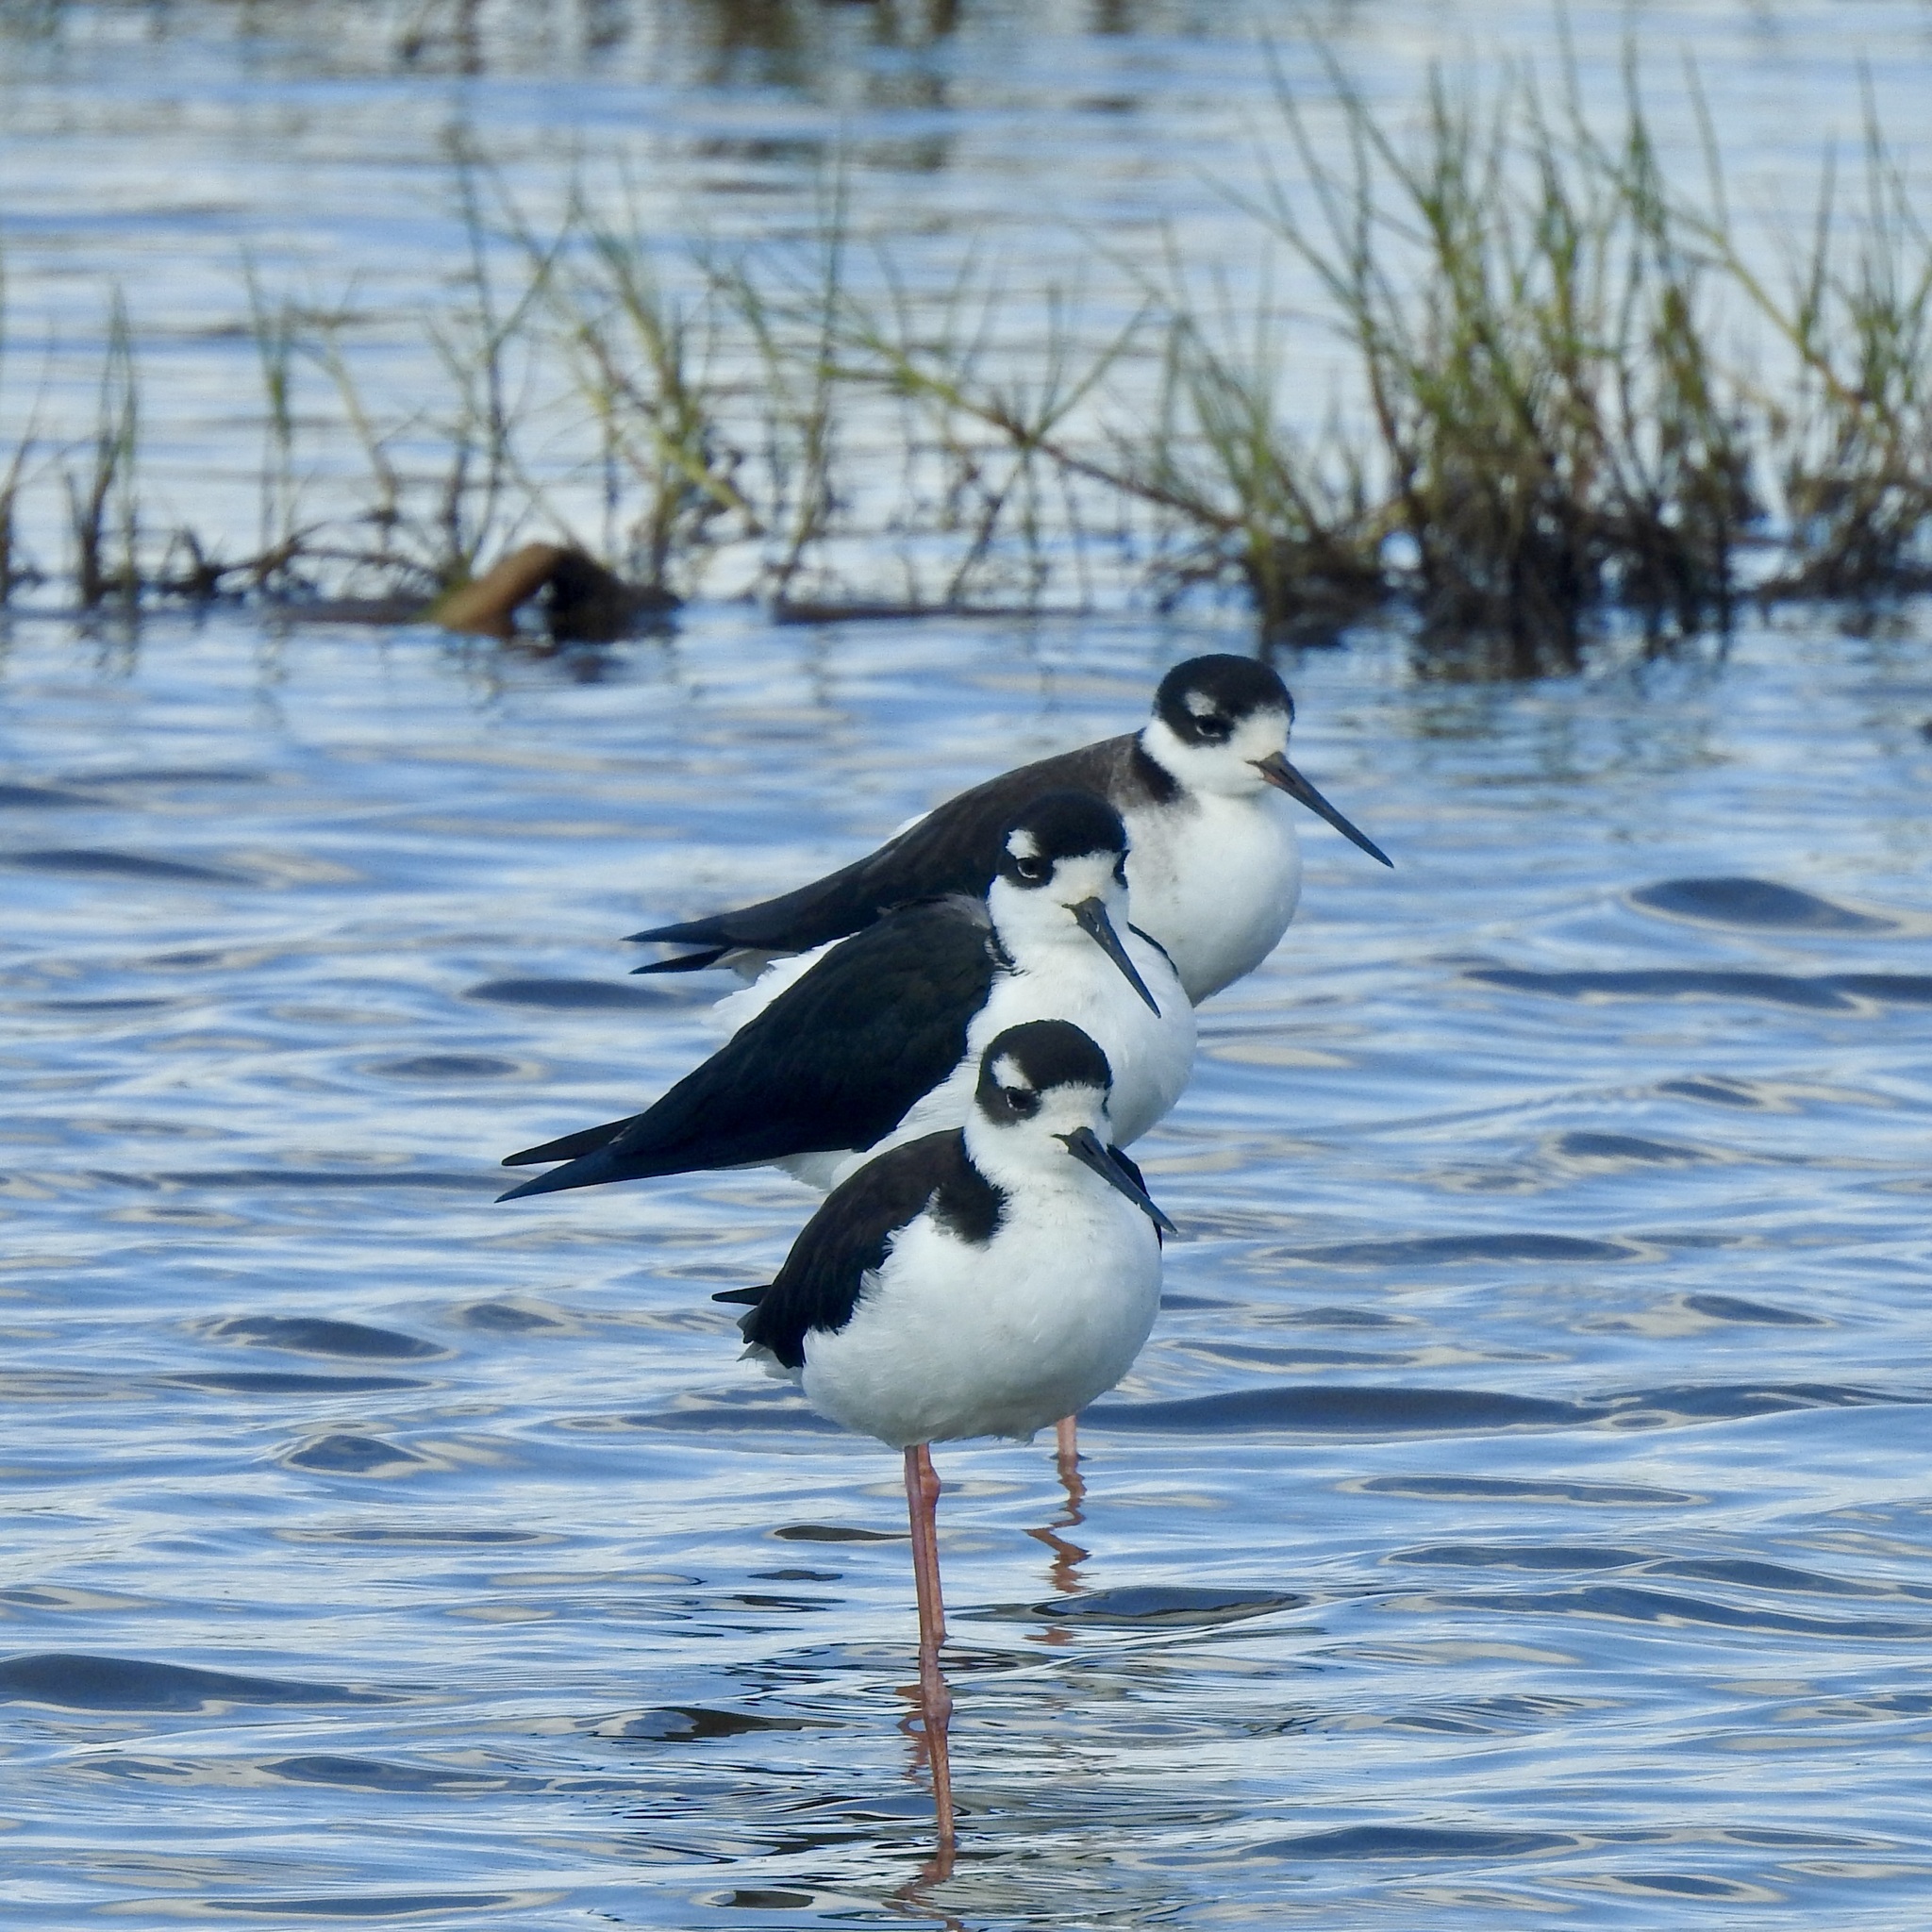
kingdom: Animalia
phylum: Chordata
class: Aves
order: Charadriiformes
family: Recurvirostridae
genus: Himantopus
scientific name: Himantopus mexicanus
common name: Black-necked stilt
